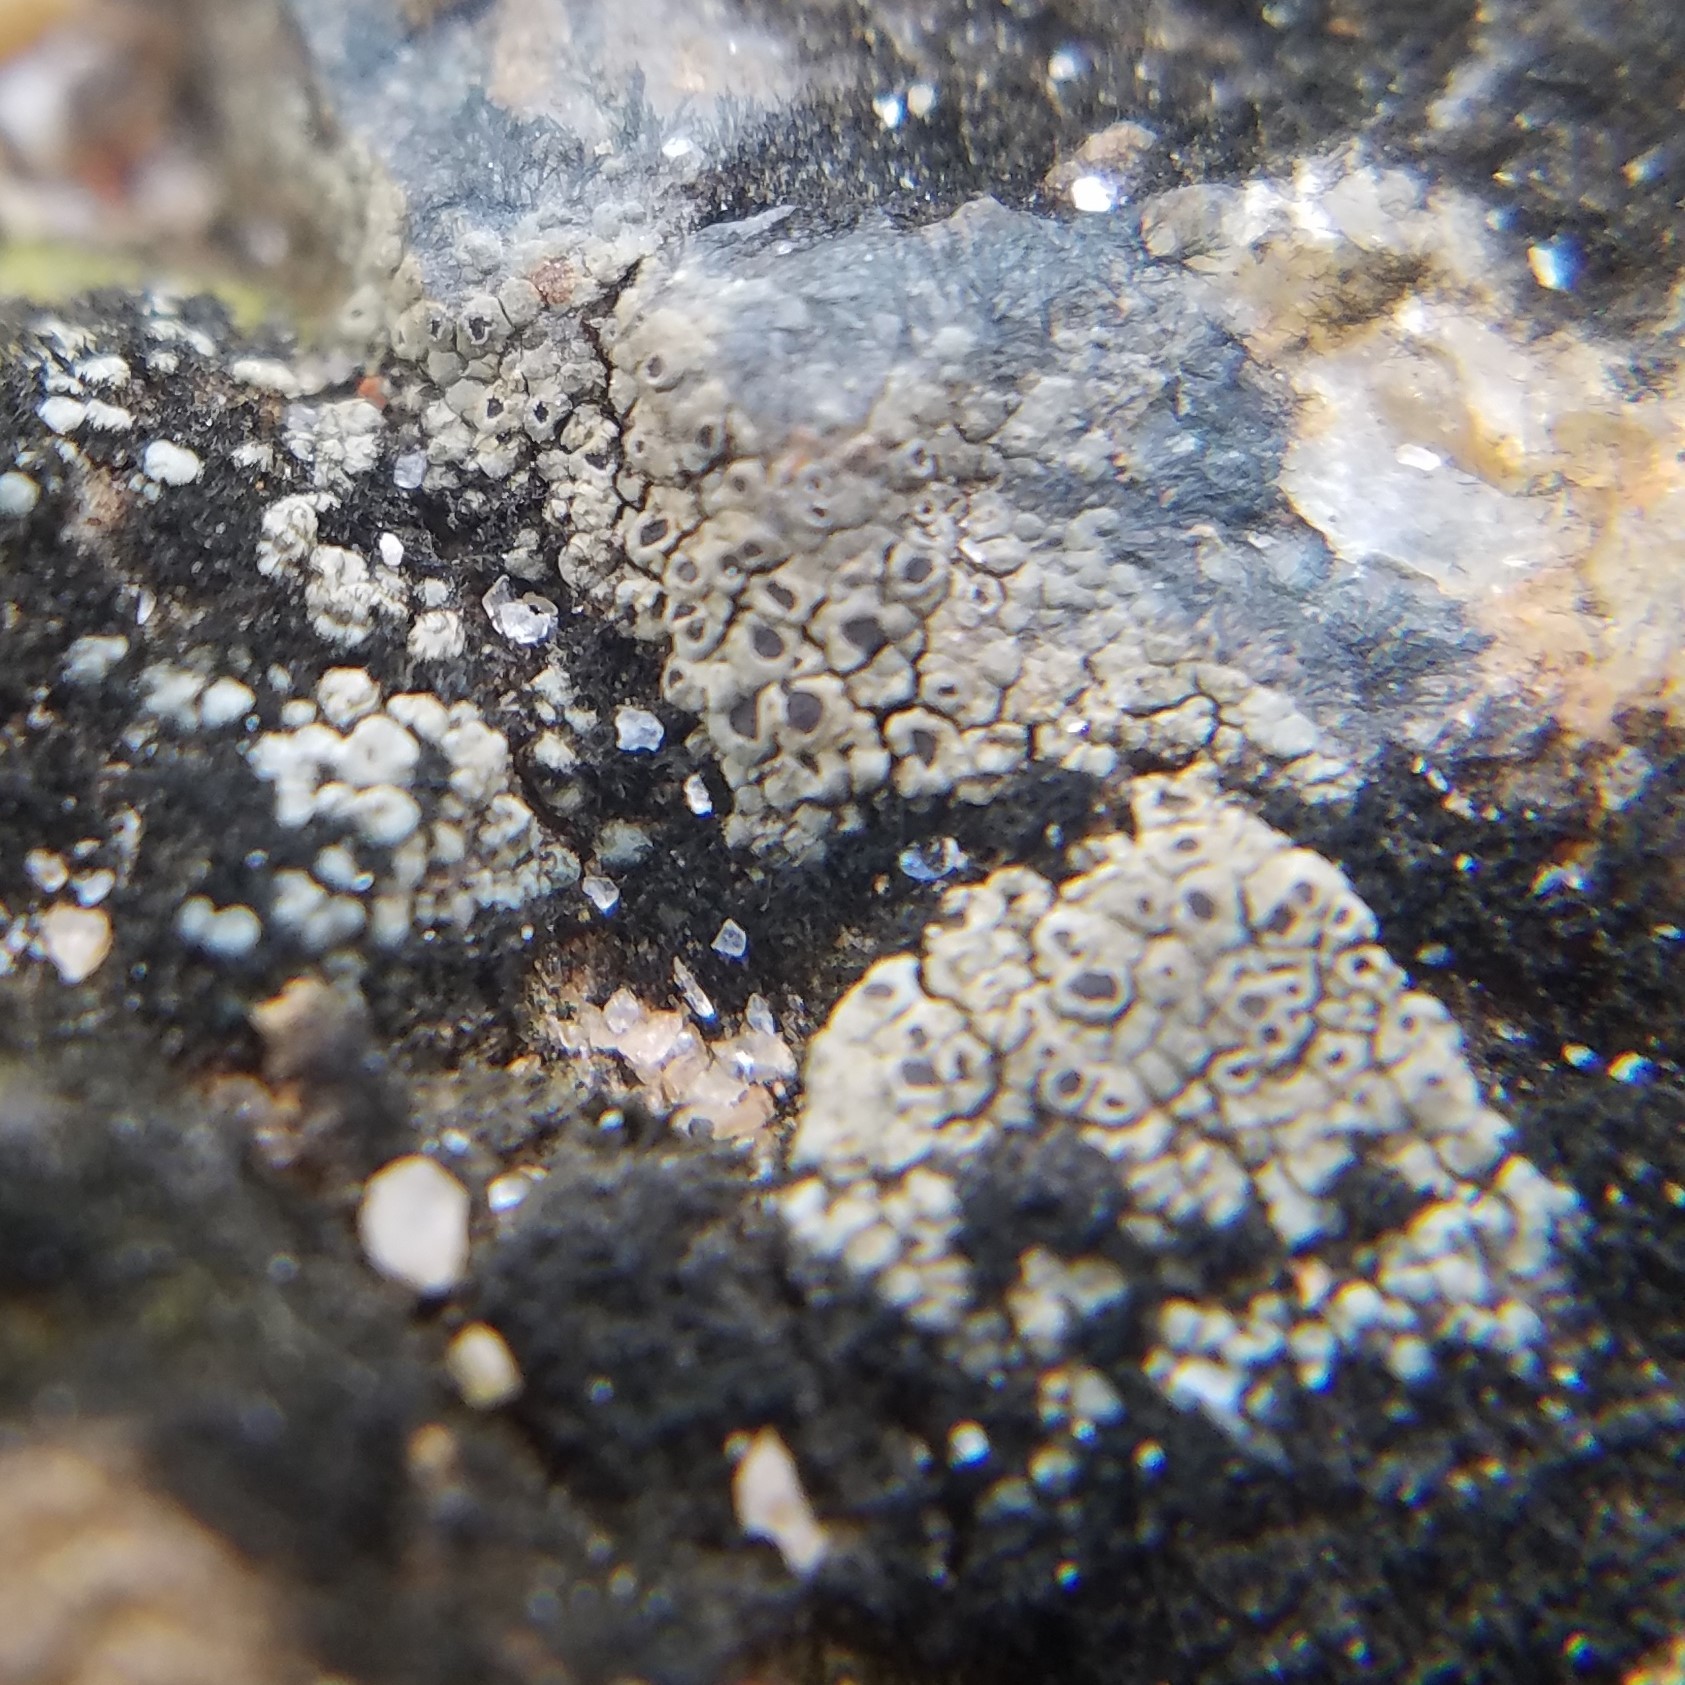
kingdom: Fungi
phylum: Ascomycota
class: Lecanoromycetes
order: Caliciales
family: Physciaceae
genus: Rinodina
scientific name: Rinodina cana
